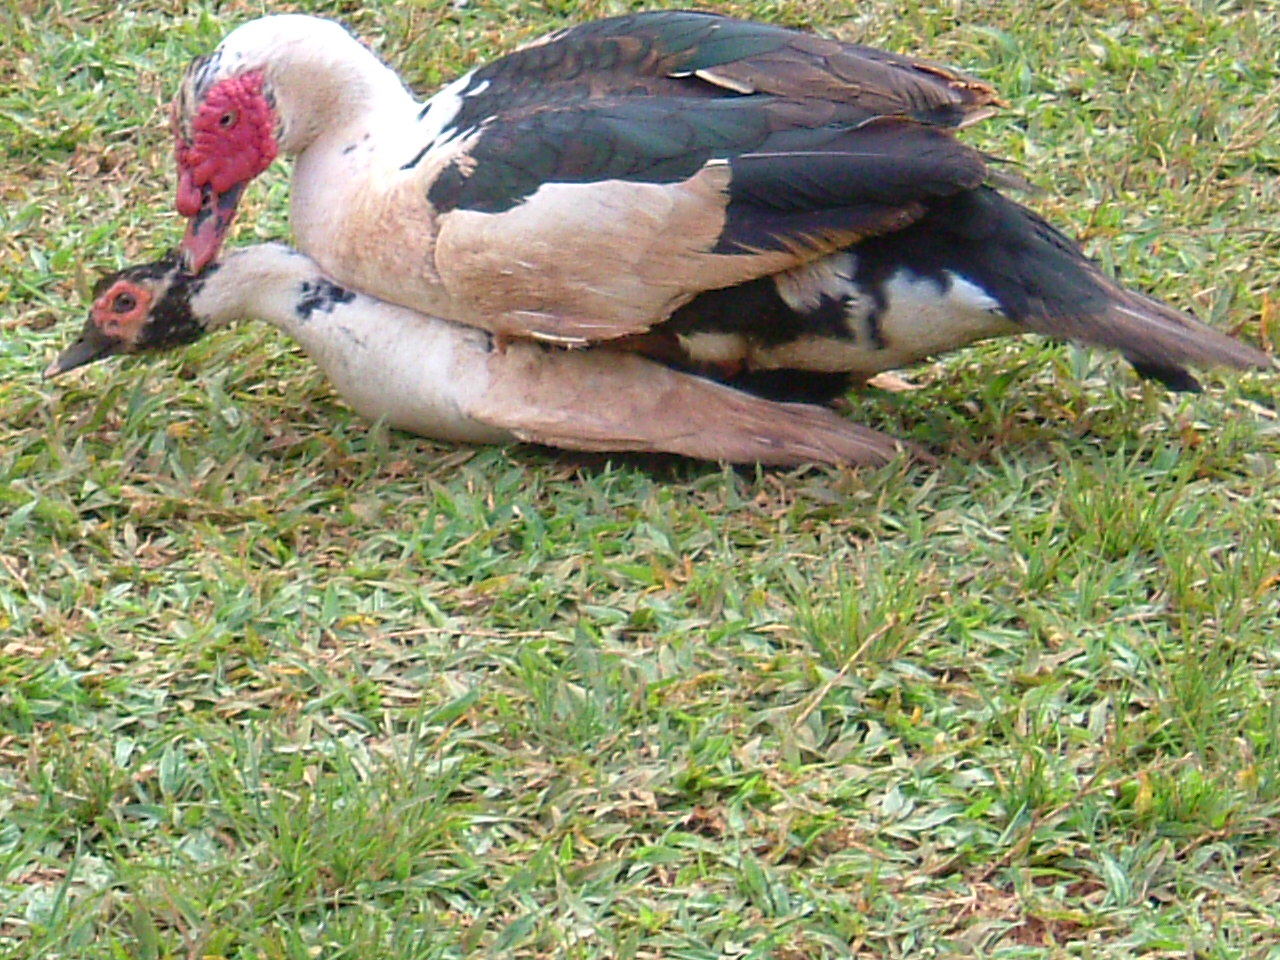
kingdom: Animalia
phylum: Chordata
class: Aves
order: Anseriformes
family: Anatidae
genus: Cairina
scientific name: Cairina moschata
